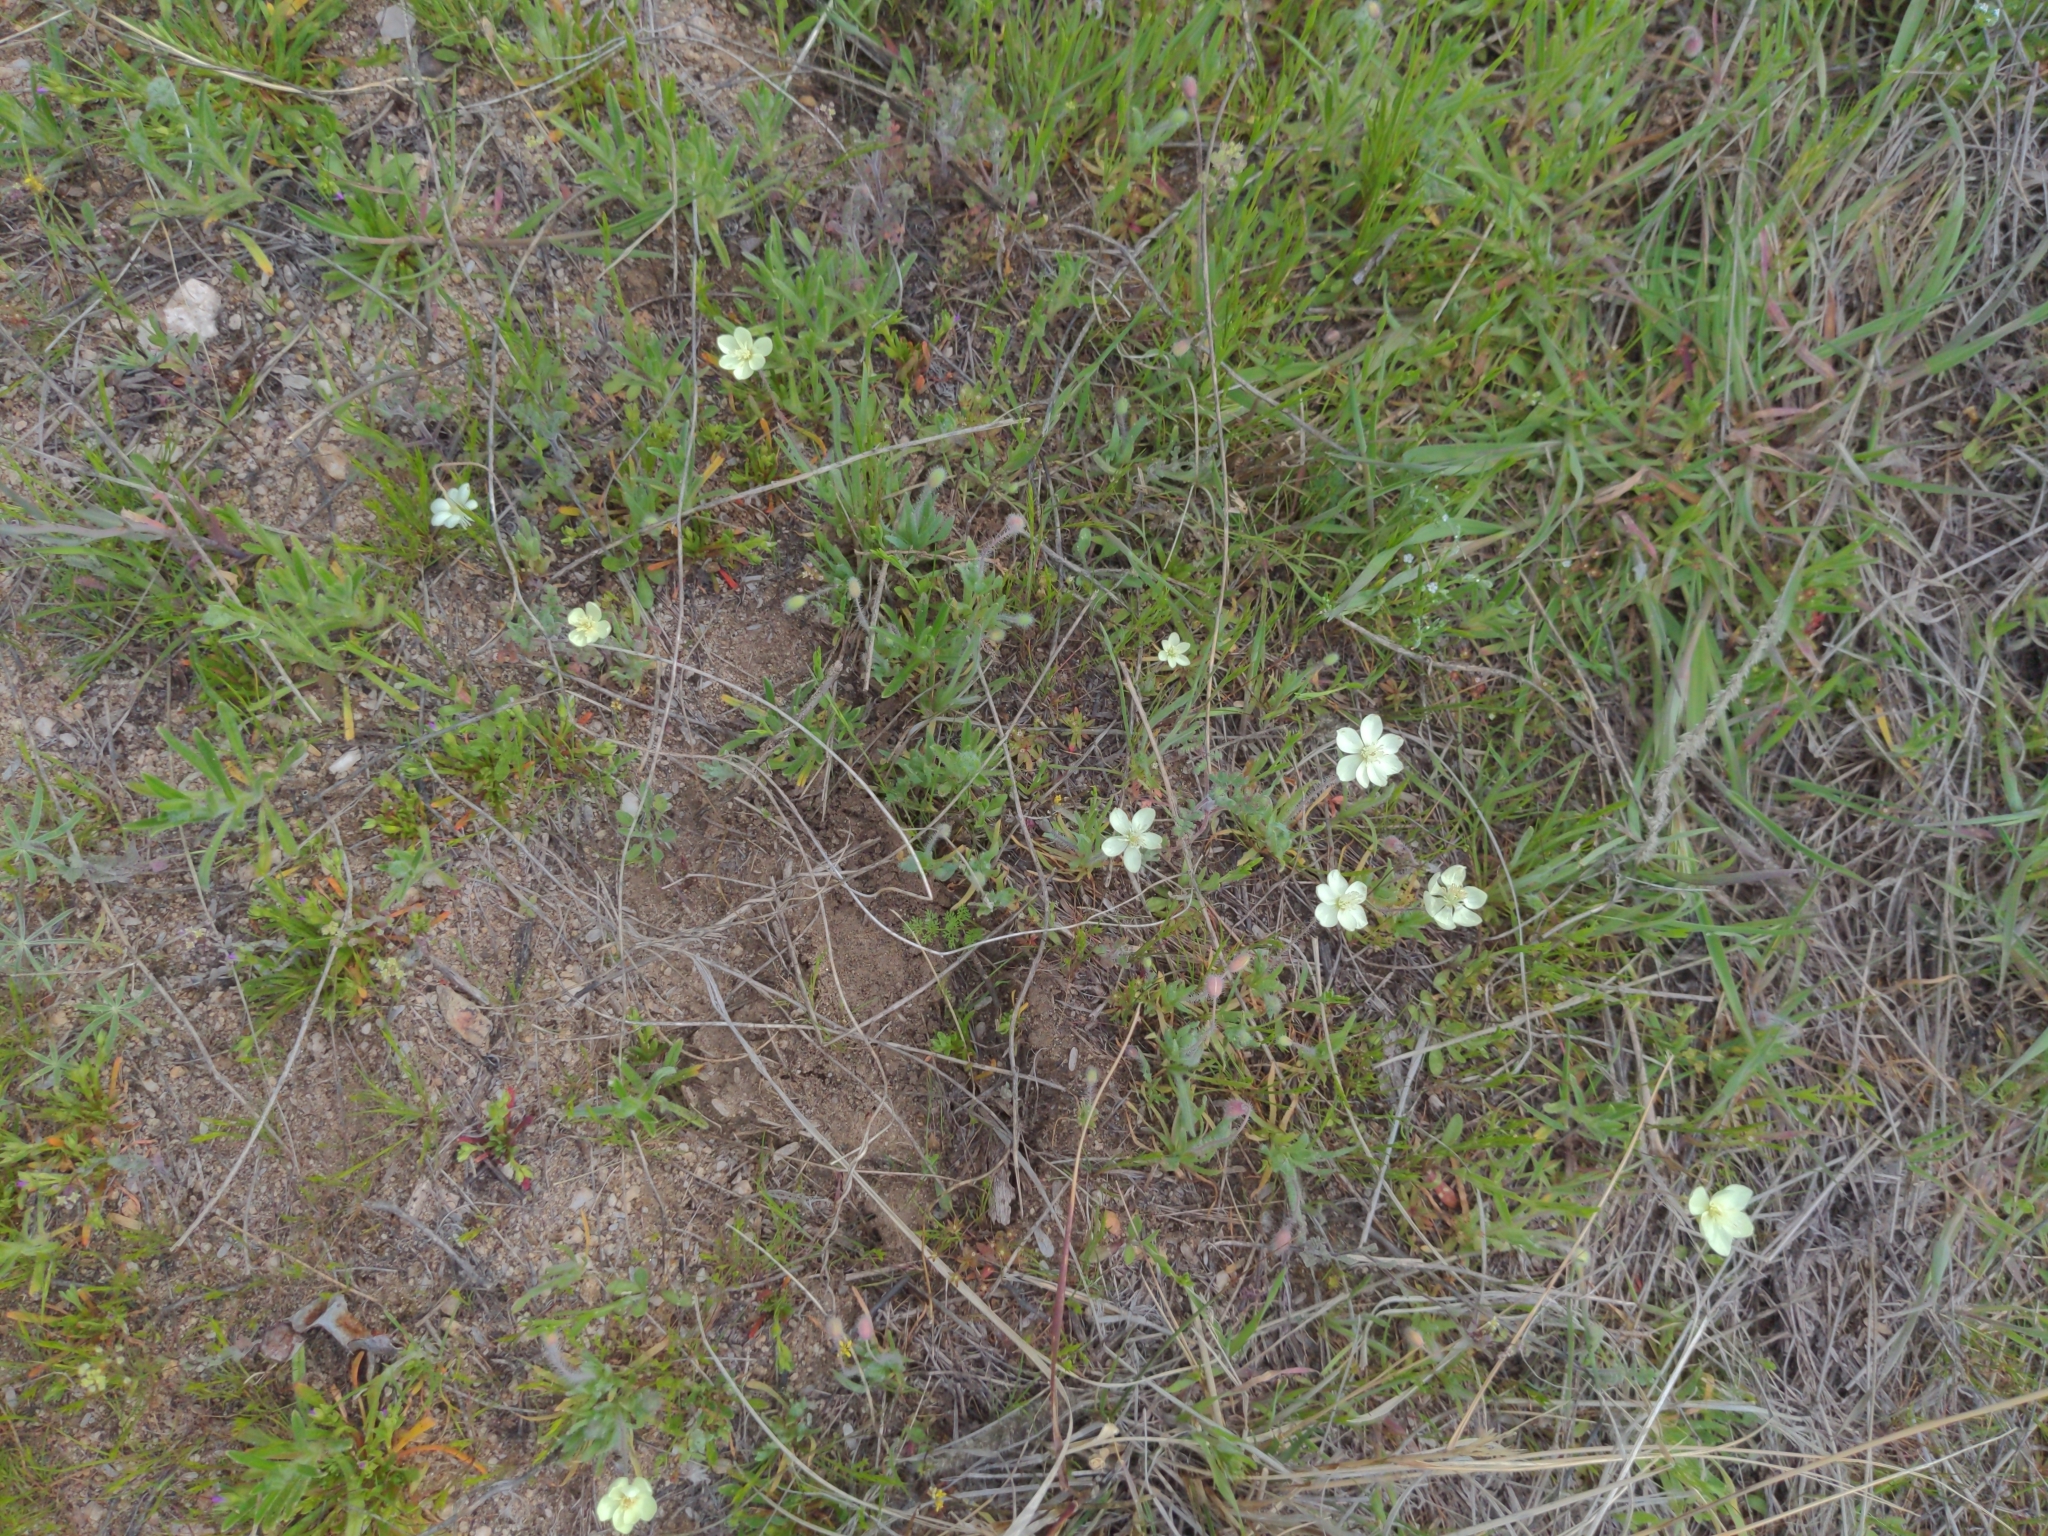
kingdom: Plantae
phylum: Tracheophyta
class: Magnoliopsida
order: Ranunculales
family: Papaveraceae
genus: Platystemon
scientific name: Platystemon californicus
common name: Cream-cups
